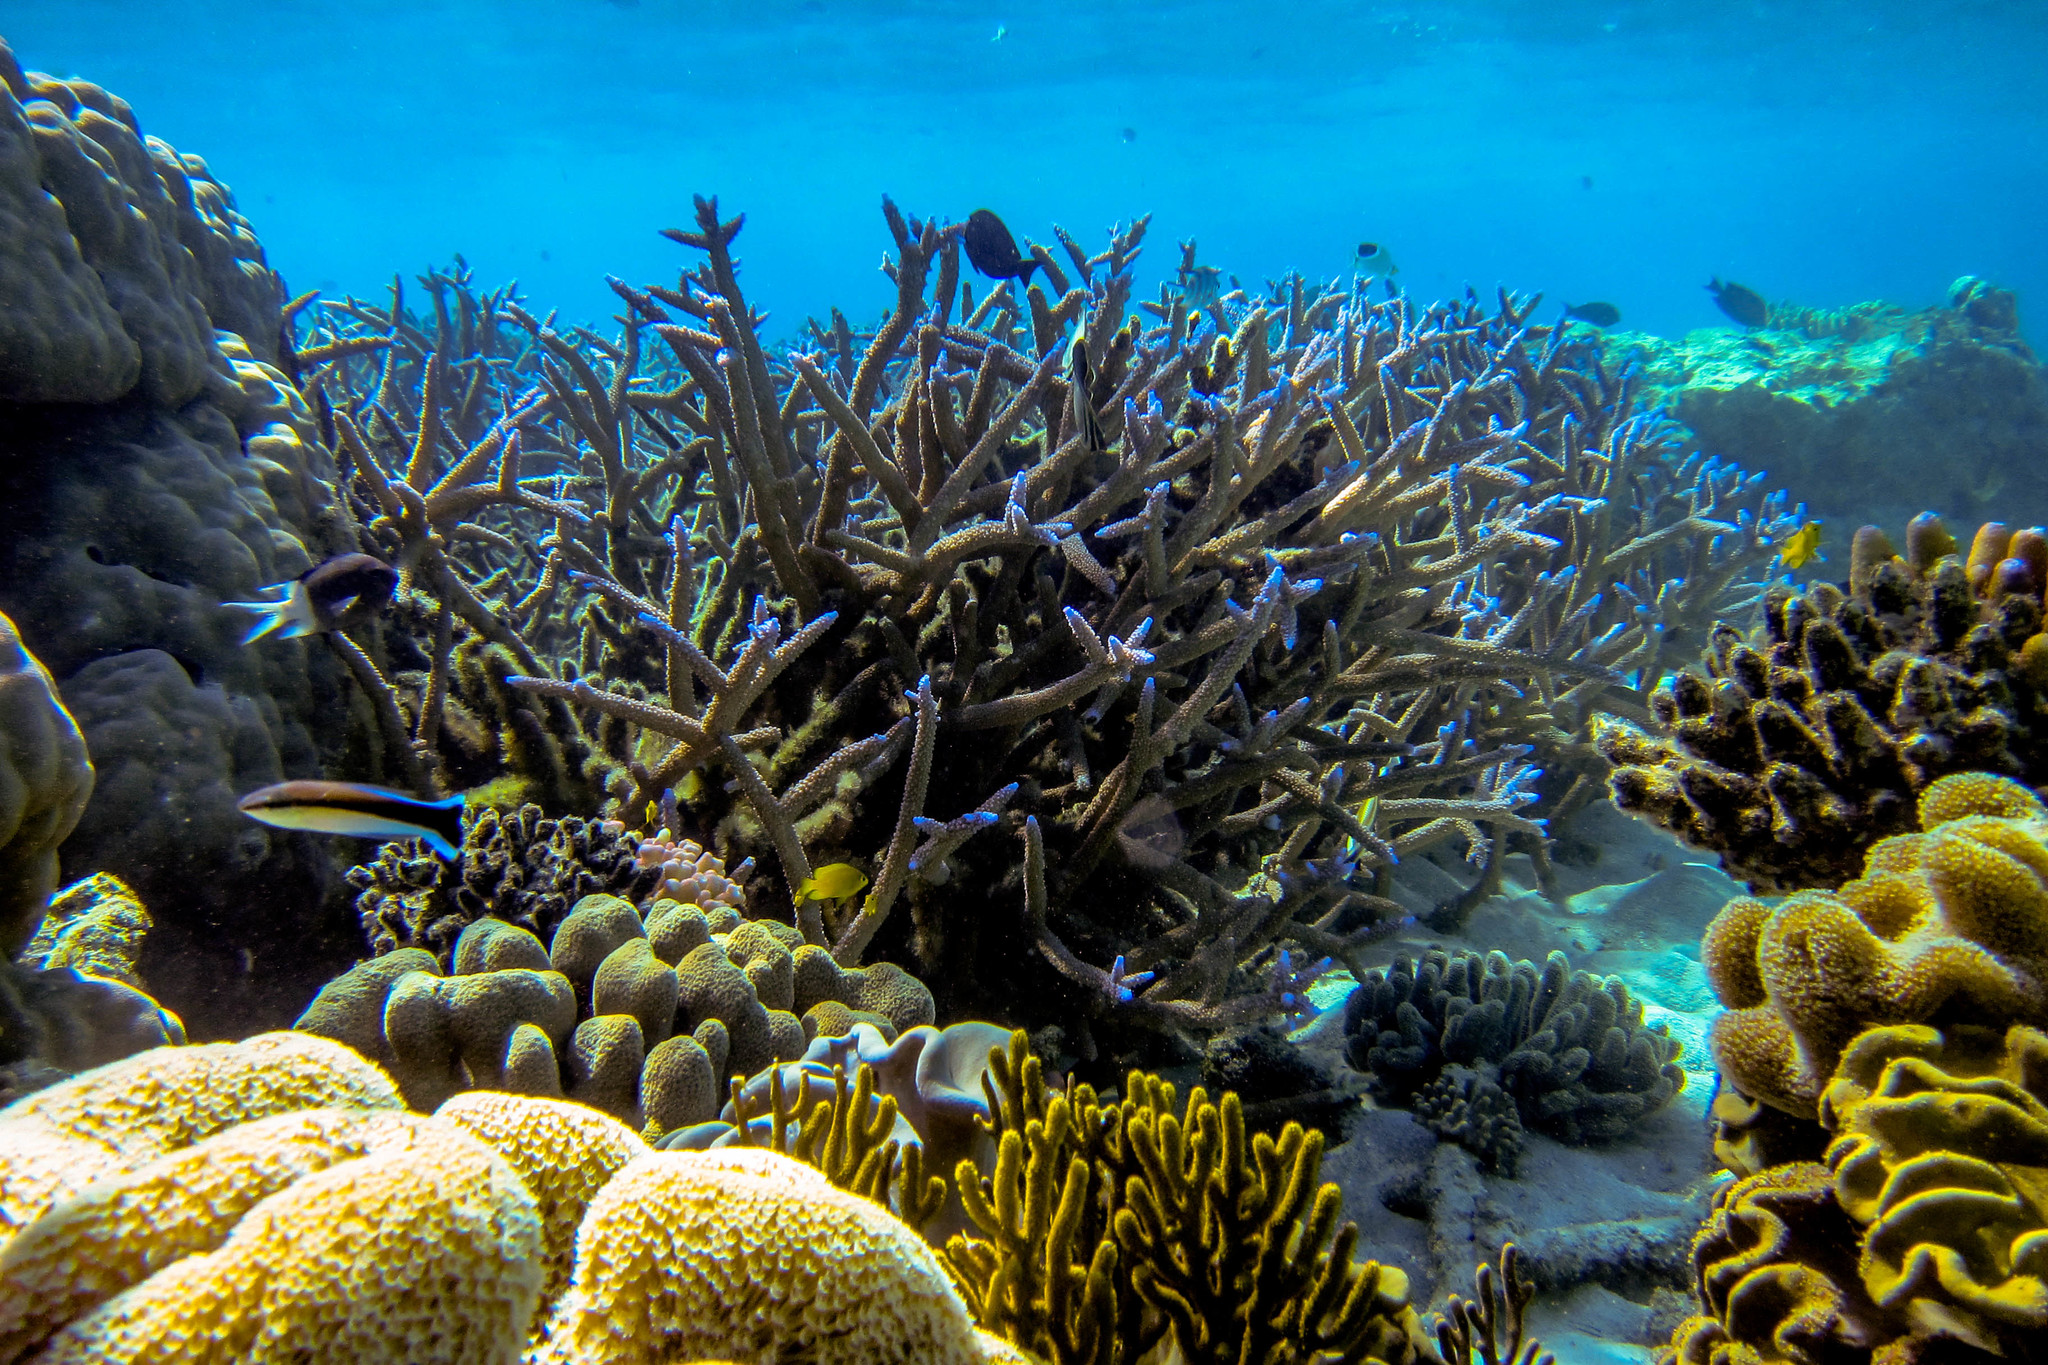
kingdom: Animalia
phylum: Chordata
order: Perciformes
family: Labridae
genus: Labroides
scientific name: Labroides dimidiatus
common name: Blue diesel wrasse
